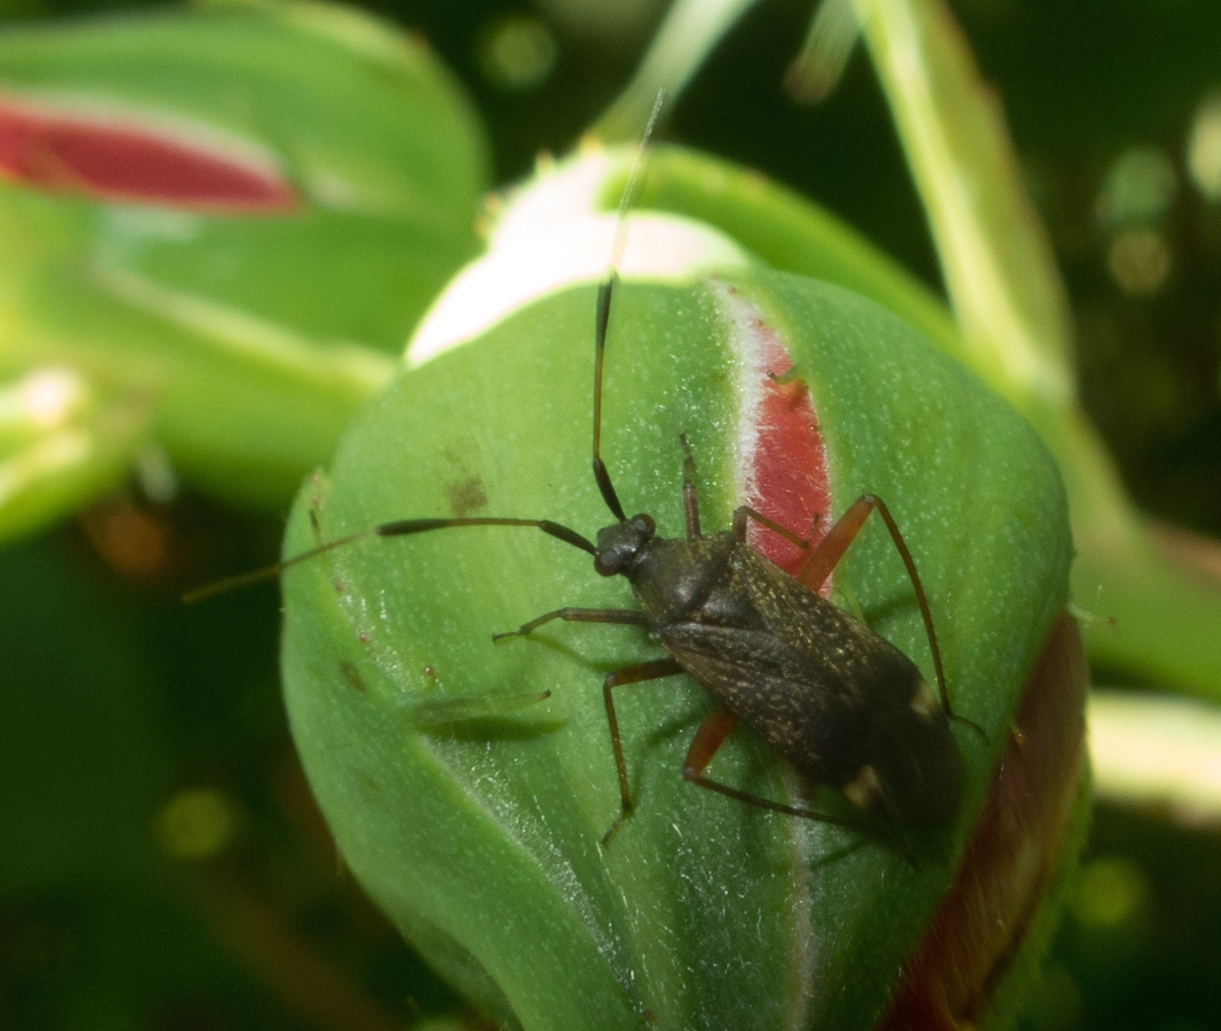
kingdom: Animalia
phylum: Arthropoda
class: Insecta
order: Hemiptera
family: Miridae
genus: Closterotomus
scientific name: Closterotomus biclavatus
